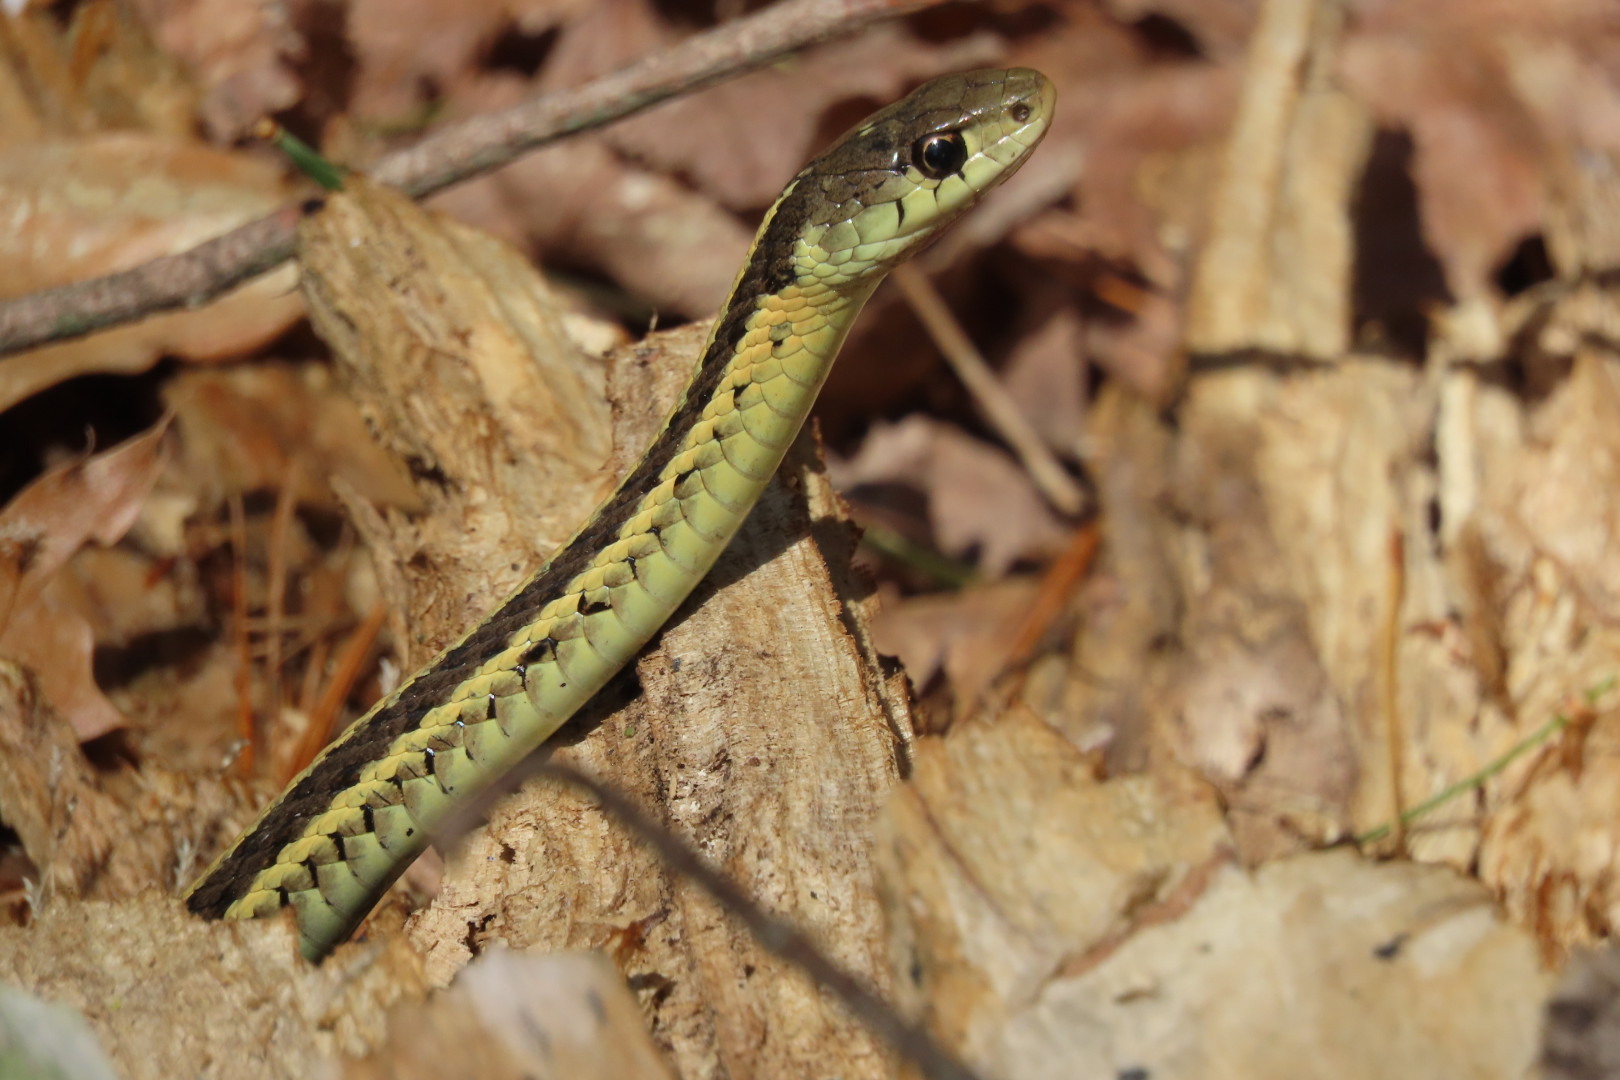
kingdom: Animalia
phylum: Chordata
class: Squamata
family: Colubridae
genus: Thamnophis
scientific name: Thamnophis sirtalis
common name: Common garter snake
